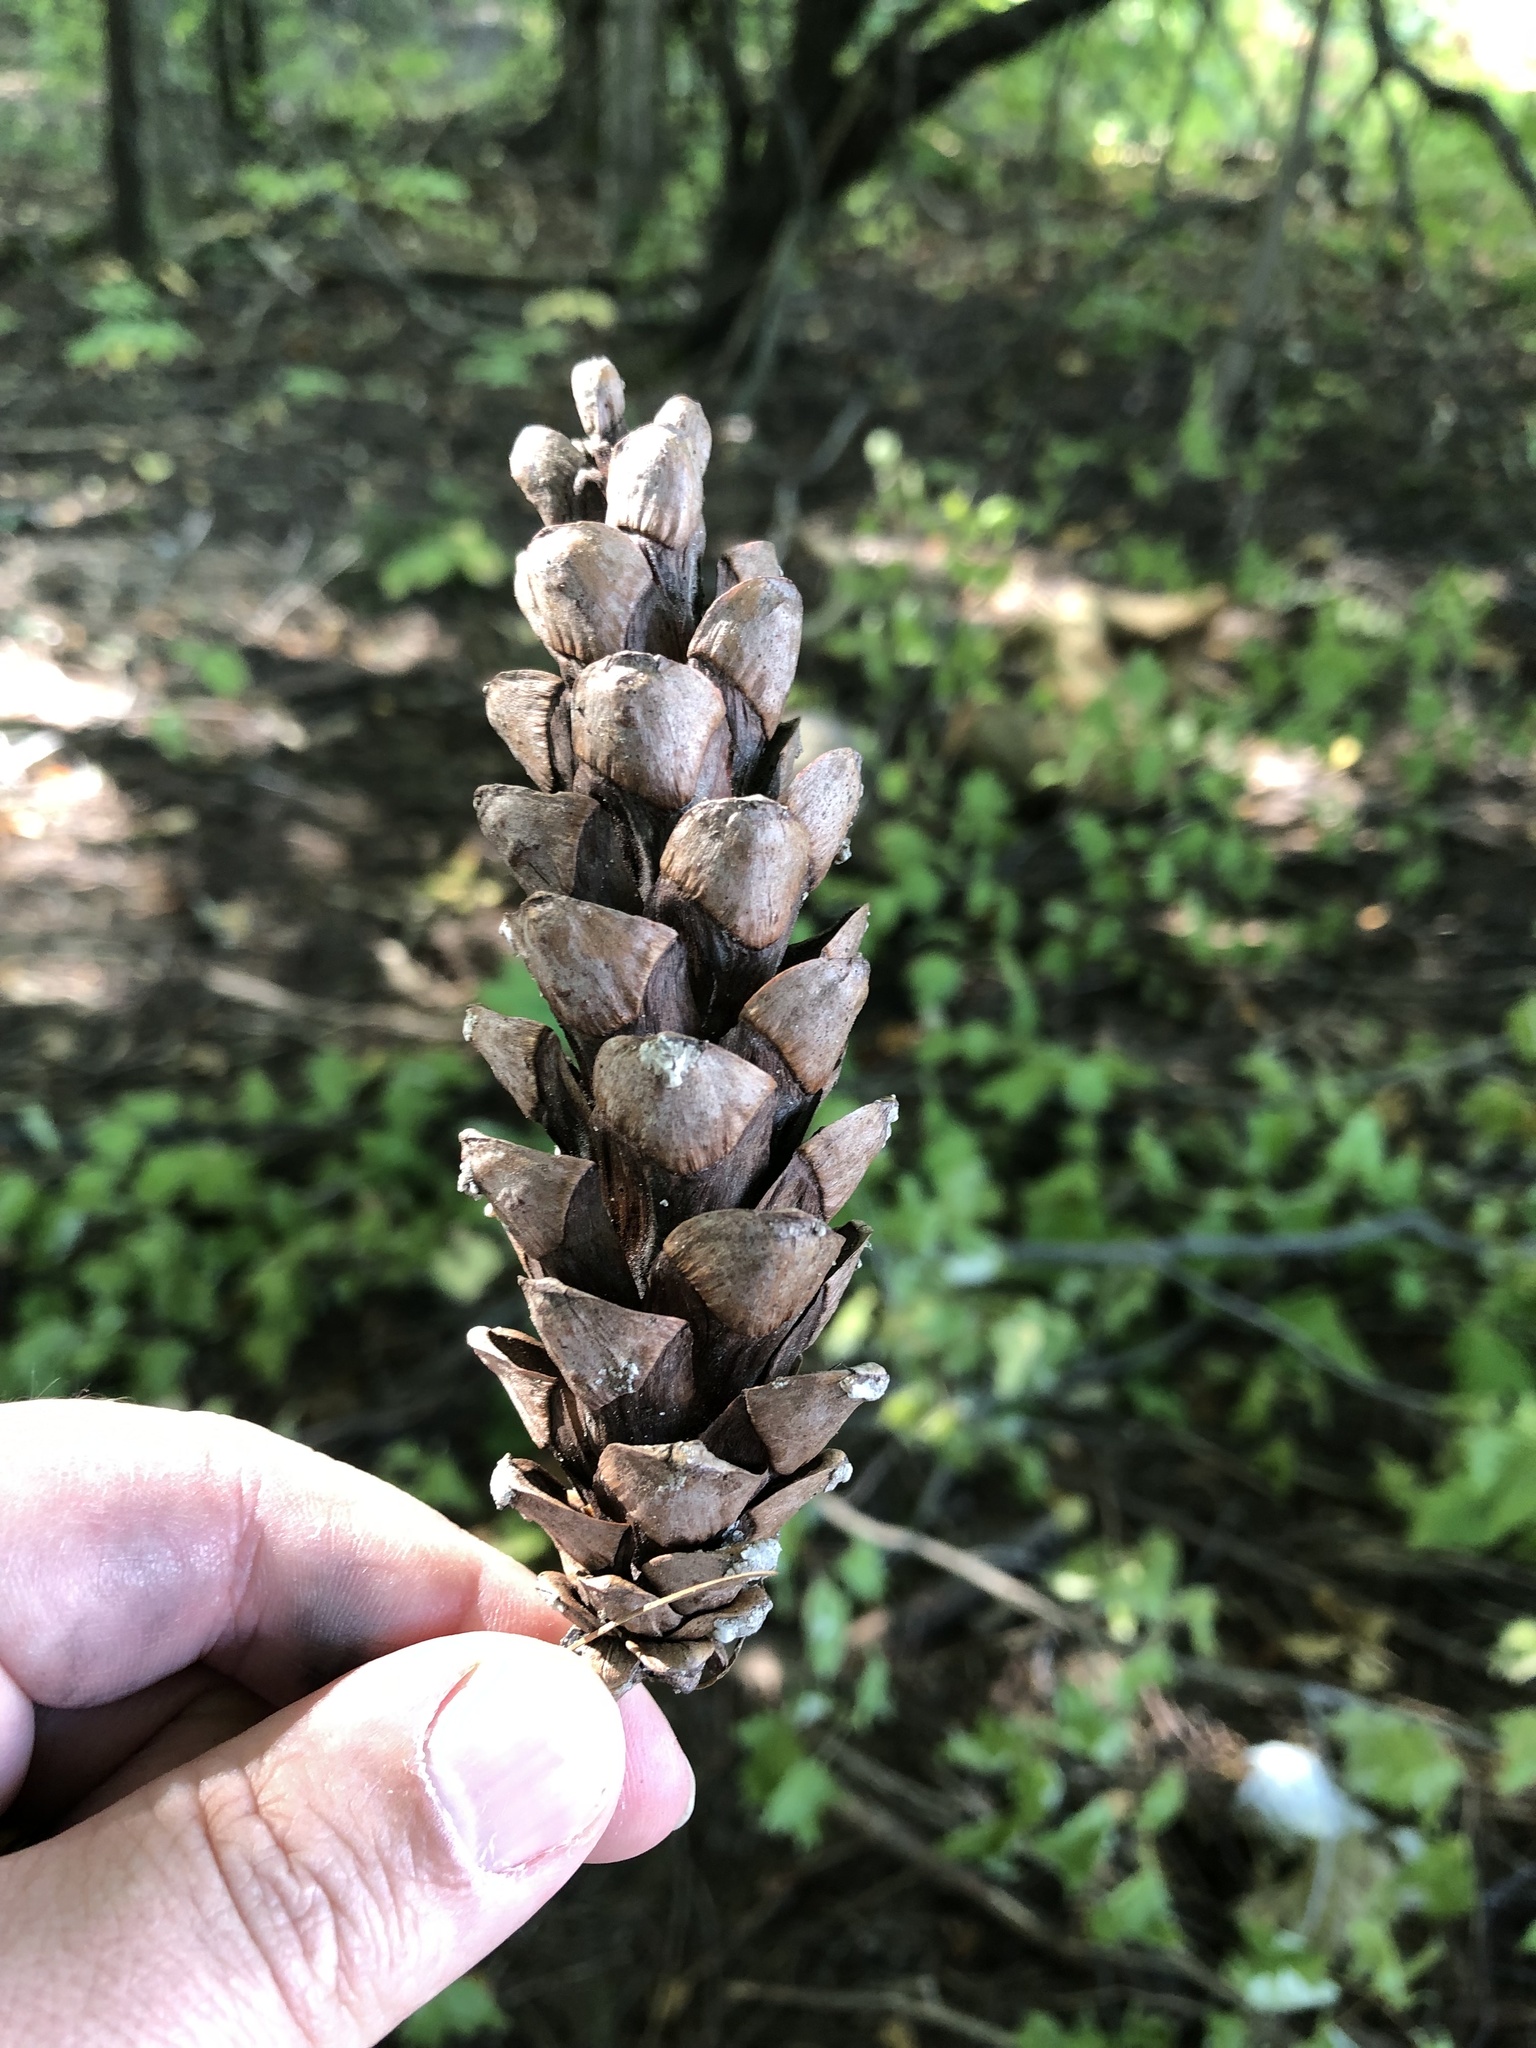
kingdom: Plantae
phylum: Tracheophyta
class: Pinopsida
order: Pinales
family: Pinaceae
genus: Pinus
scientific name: Pinus strobus
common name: Weymouth pine
